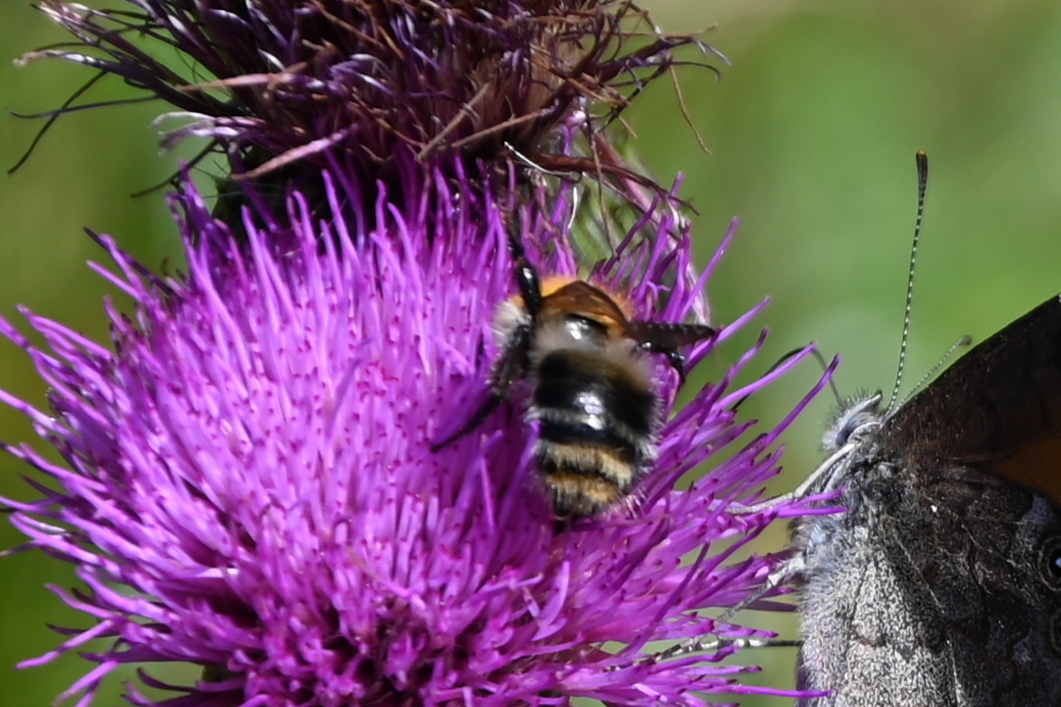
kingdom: Animalia
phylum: Arthropoda
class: Insecta
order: Hymenoptera
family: Apidae
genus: Bombus
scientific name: Bombus pascuorum
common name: Common carder bee
